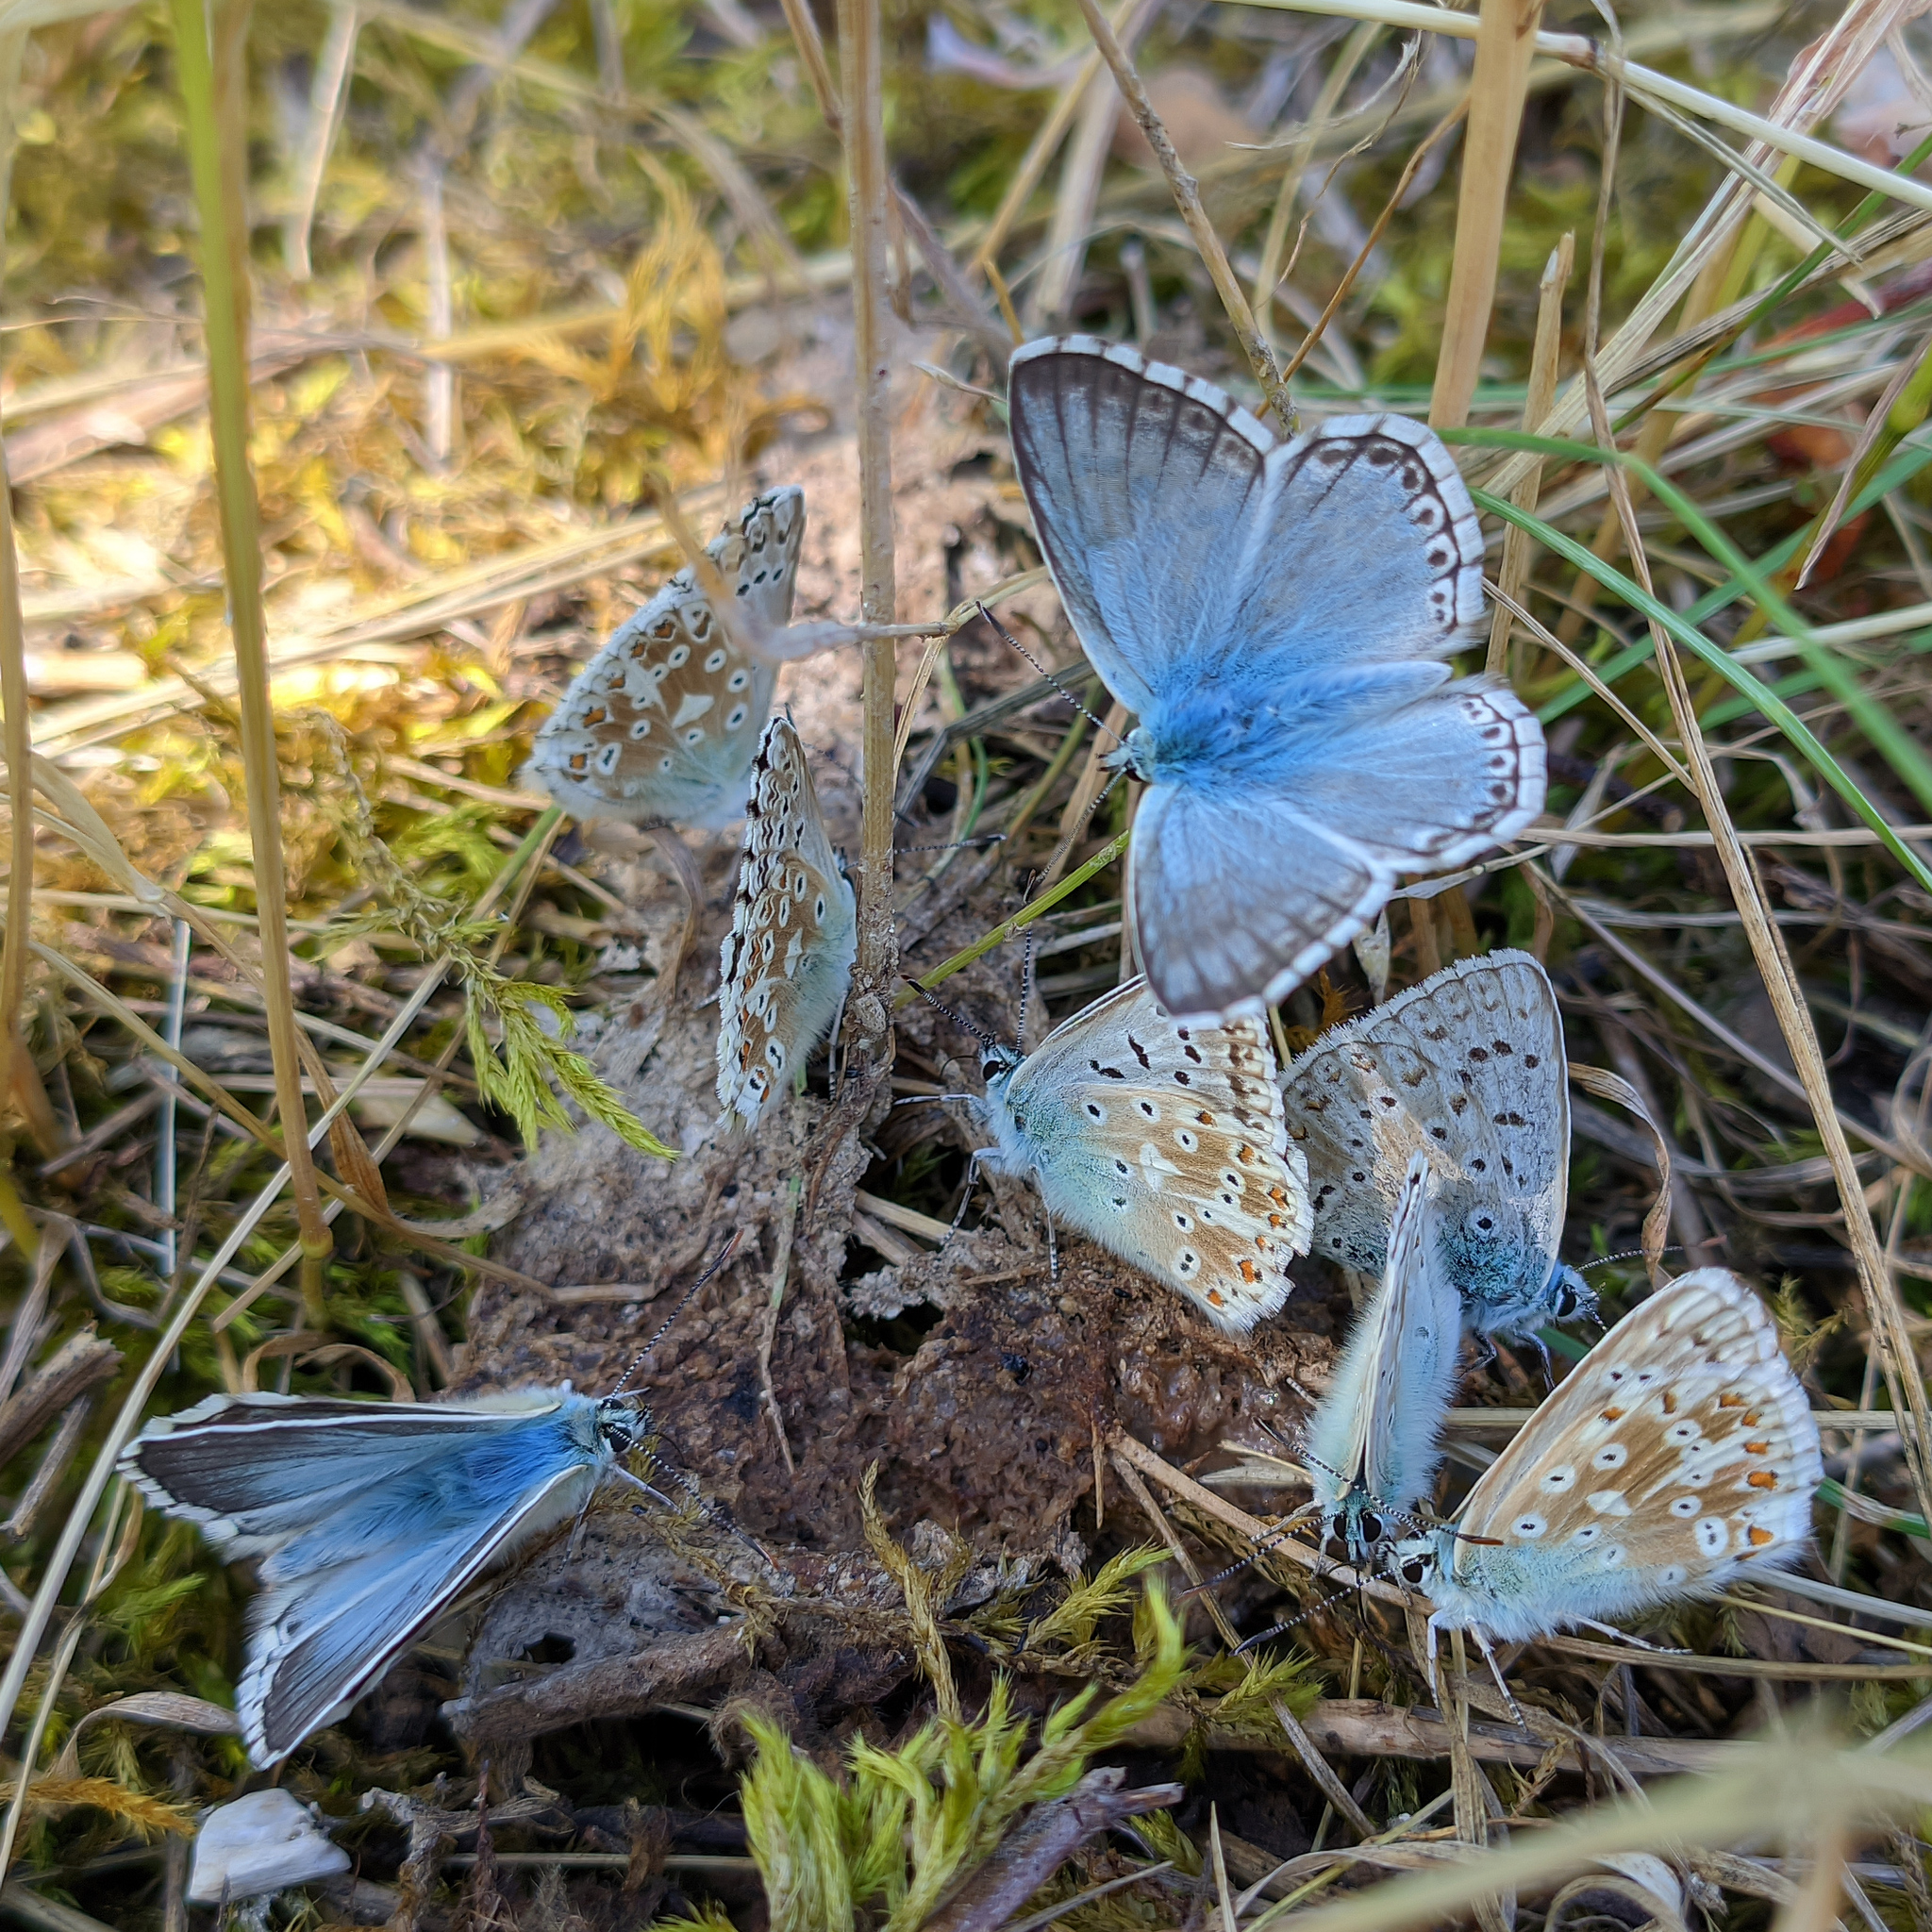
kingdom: Animalia
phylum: Arthropoda
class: Insecta
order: Lepidoptera
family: Lycaenidae
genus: Lysandra
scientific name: Lysandra coridon
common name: Chalkhill blue
